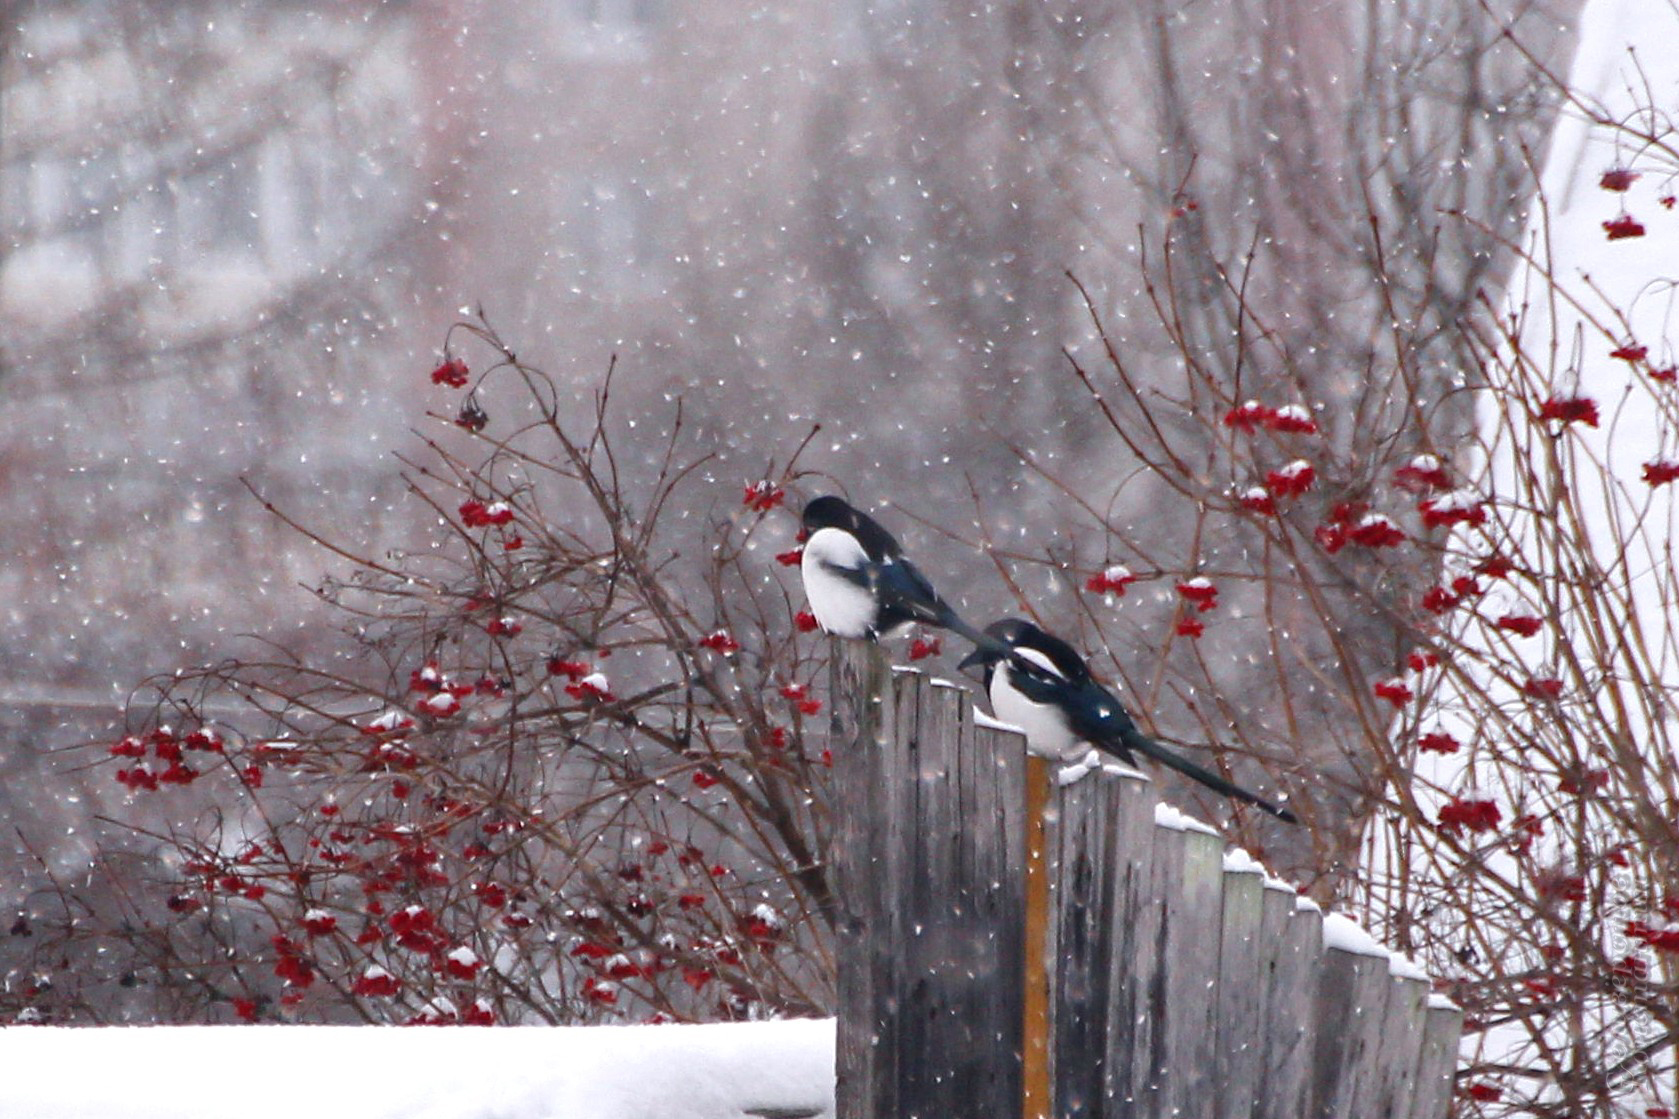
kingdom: Animalia
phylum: Chordata
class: Aves
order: Passeriformes
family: Corvidae
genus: Pica
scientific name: Pica pica
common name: Eurasian magpie
